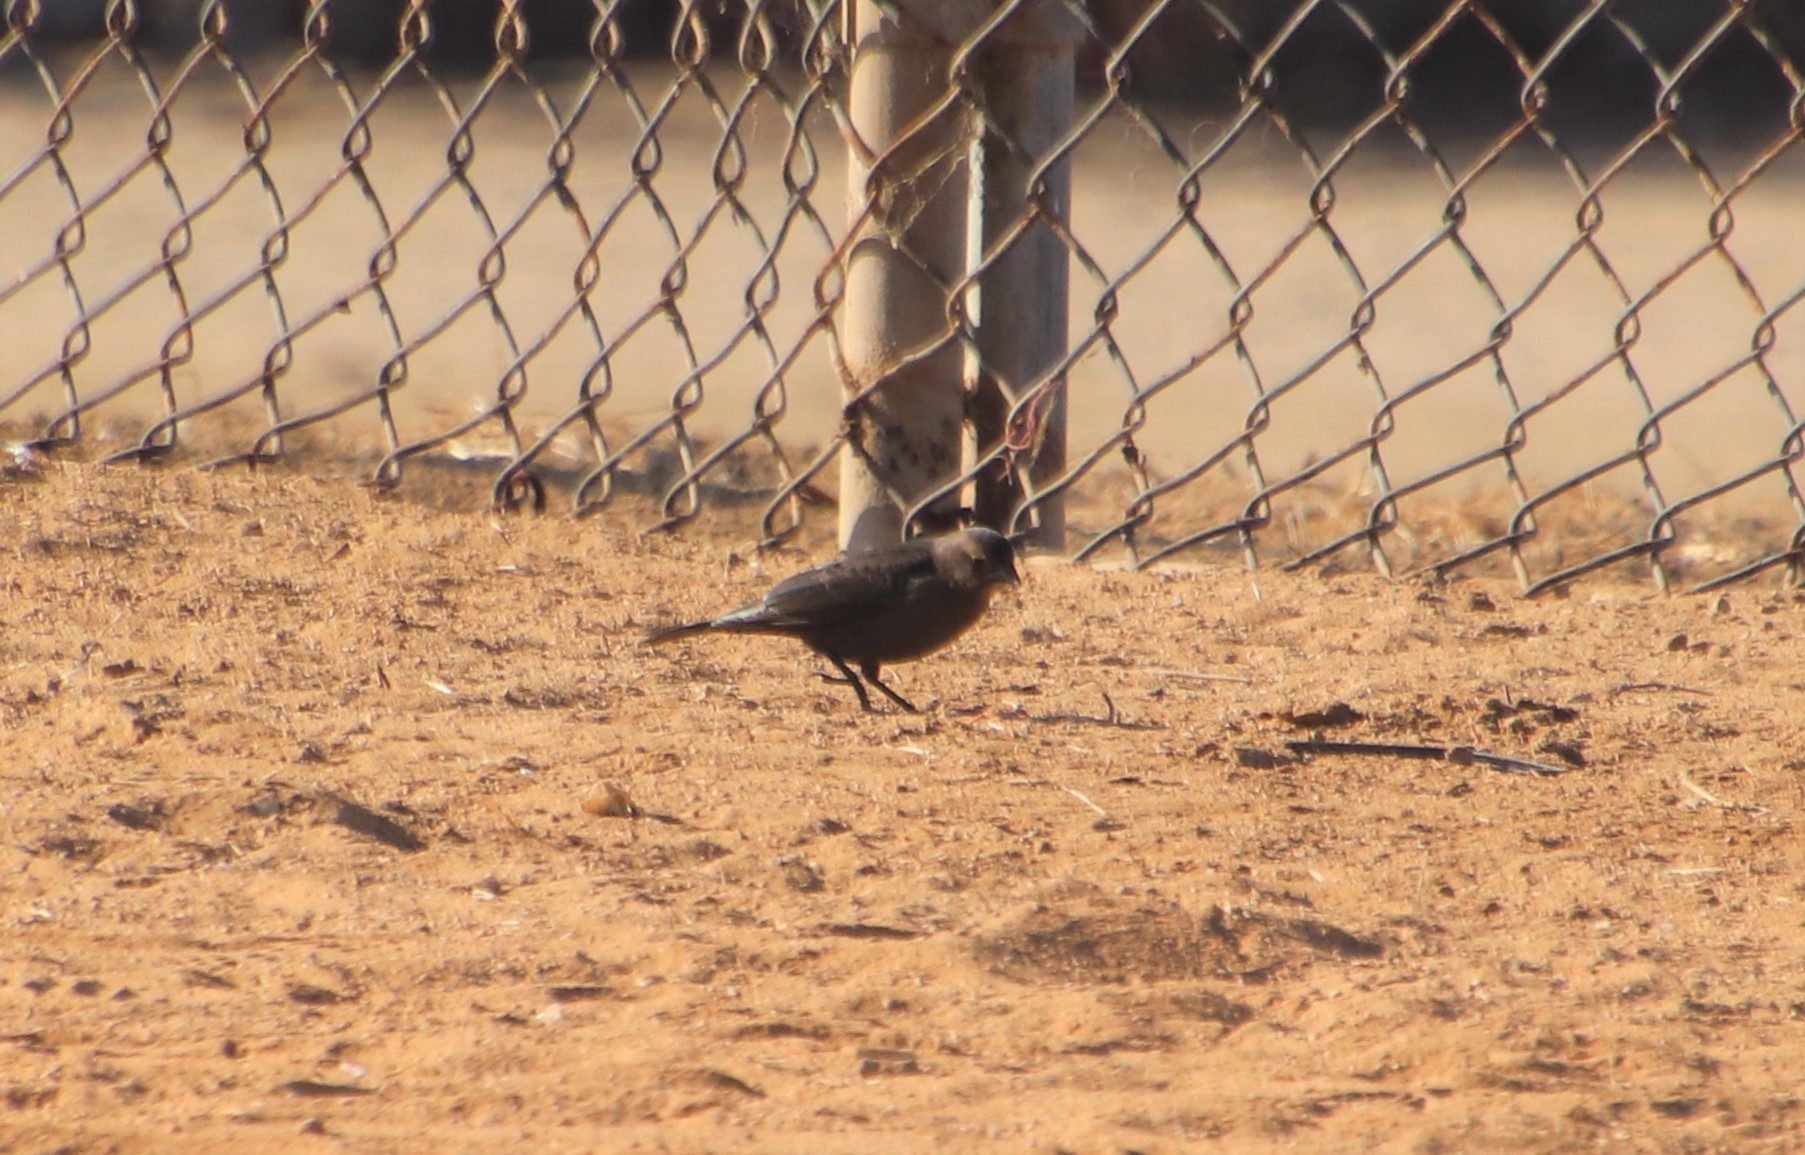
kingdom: Animalia
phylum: Chordata
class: Aves
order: Passeriformes
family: Icteridae
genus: Euphagus
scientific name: Euphagus cyanocephalus
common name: Brewer's blackbird
